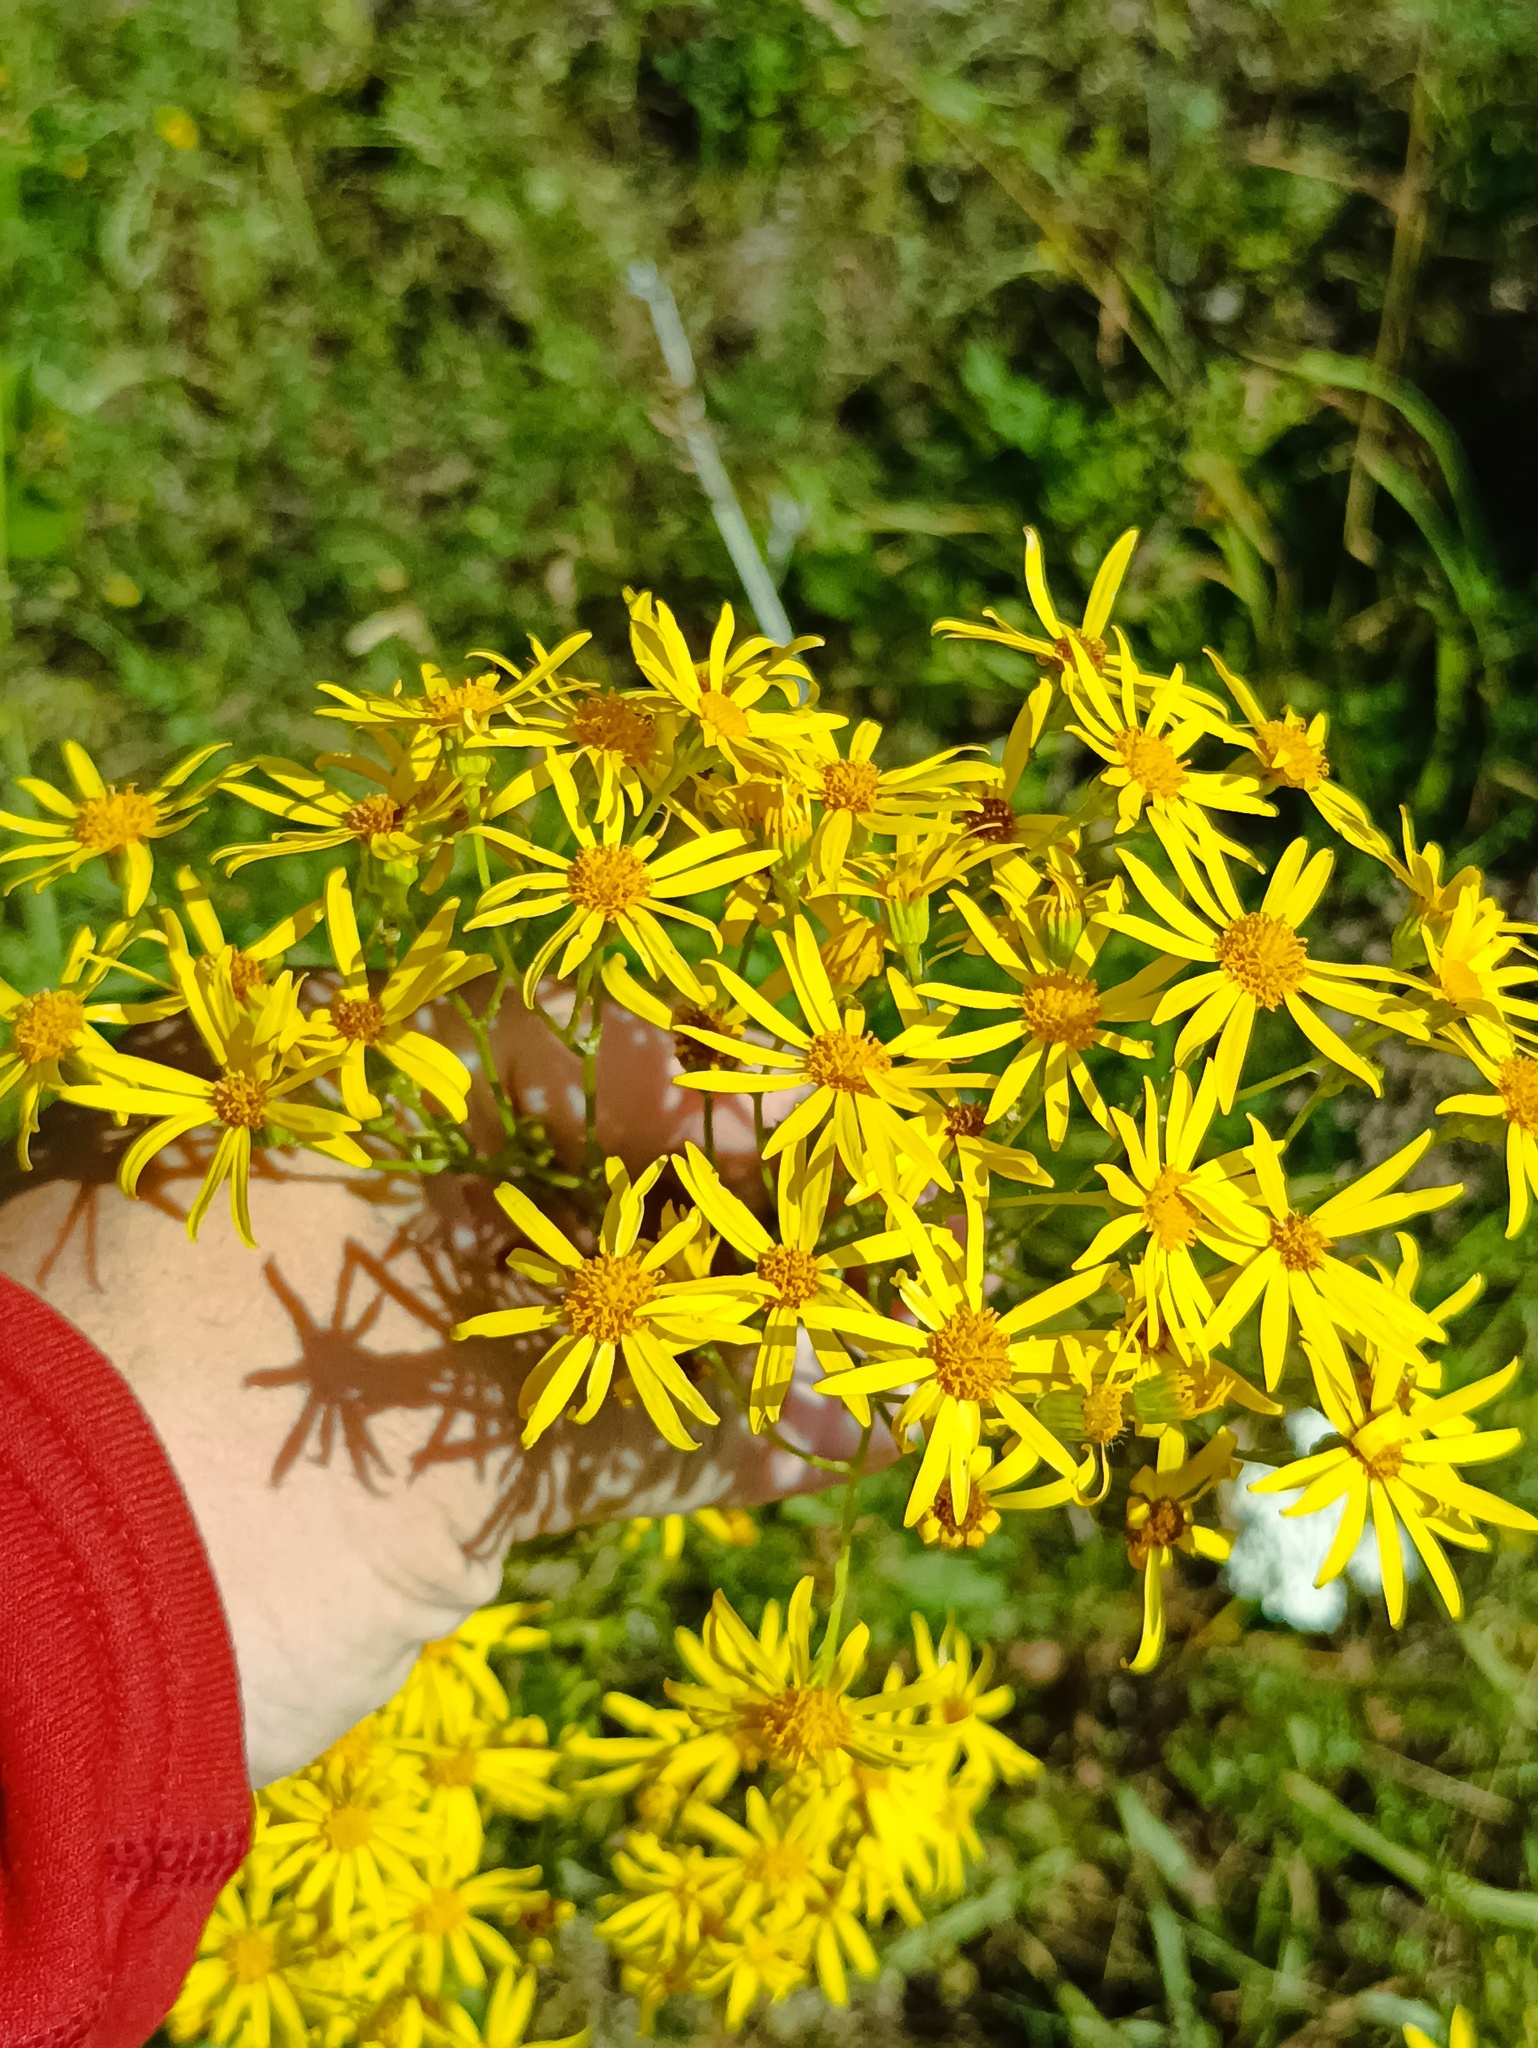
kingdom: Plantae
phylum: Tracheophyta
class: Magnoliopsida
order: Asterales
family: Asteraceae
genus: Jacobaea
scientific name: Jacobaea vulgaris
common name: Stinking willie
